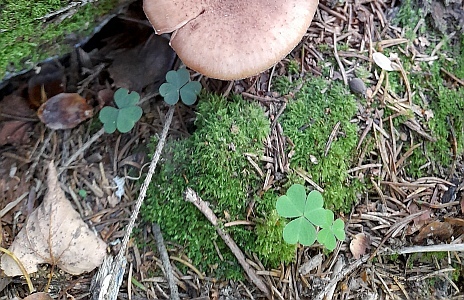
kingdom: Plantae
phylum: Tracheophyta
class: Magnoliopsida
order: Oxalidales
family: Oxalidaceae
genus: Oxalis
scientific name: Oxalis acetosella
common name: Wood-sorrel
